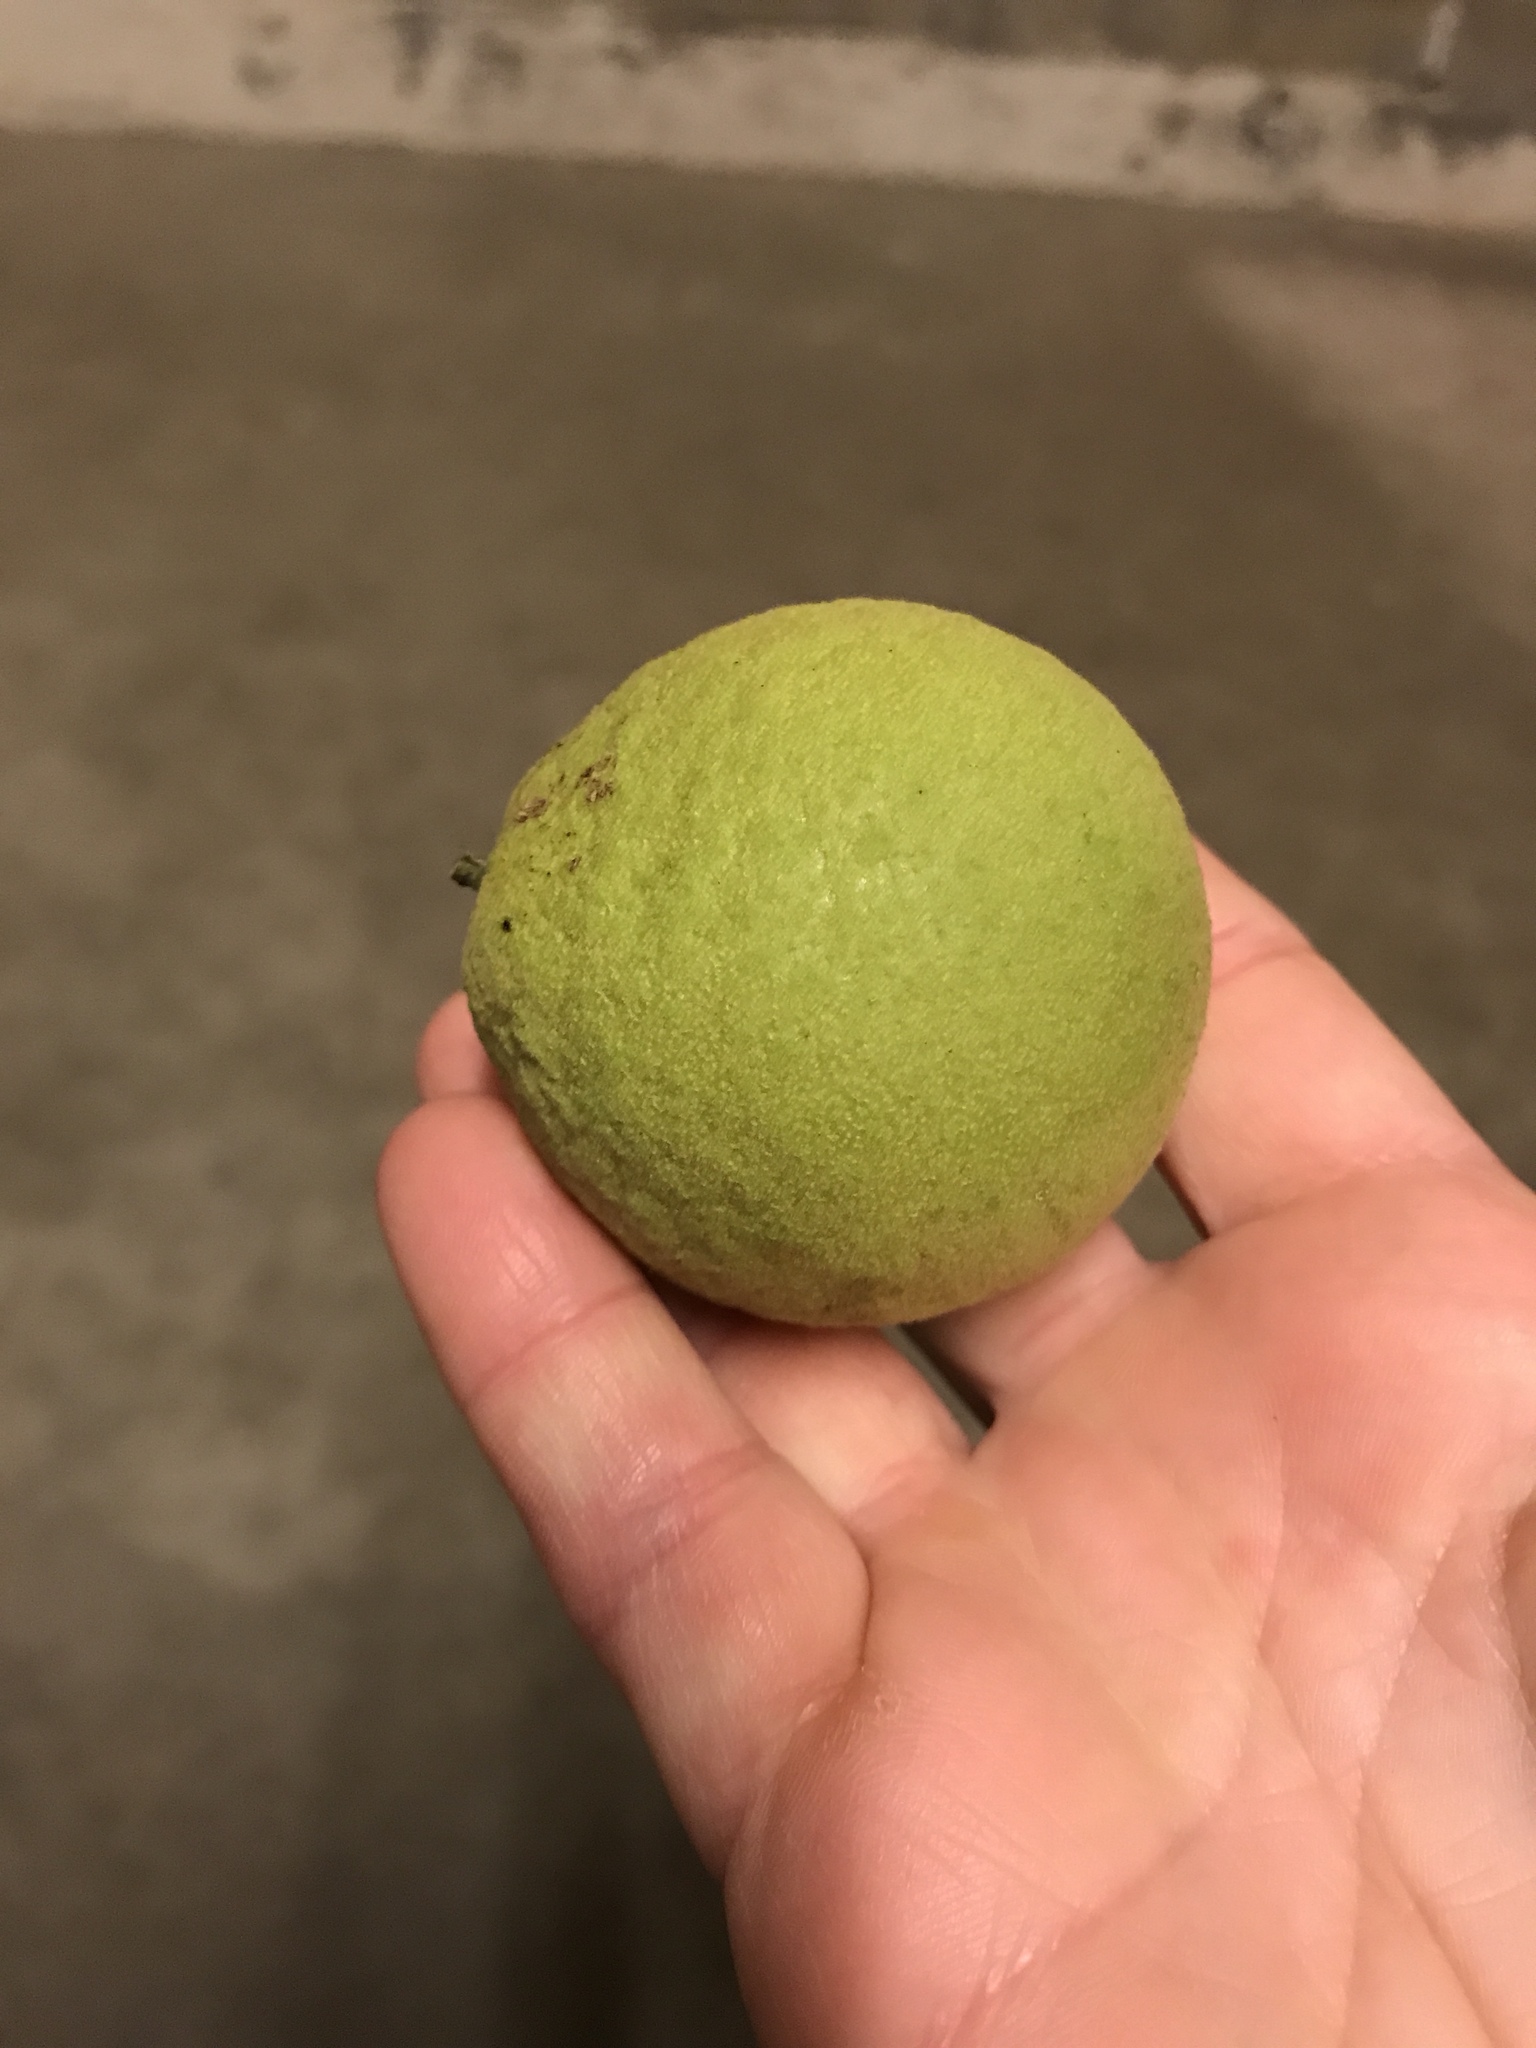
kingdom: Plantae
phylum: Tracheophyta
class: Magnoliopsida
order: Fagales
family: Juglandaceae
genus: Juglans
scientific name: Juglans nigra
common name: Black walnut
